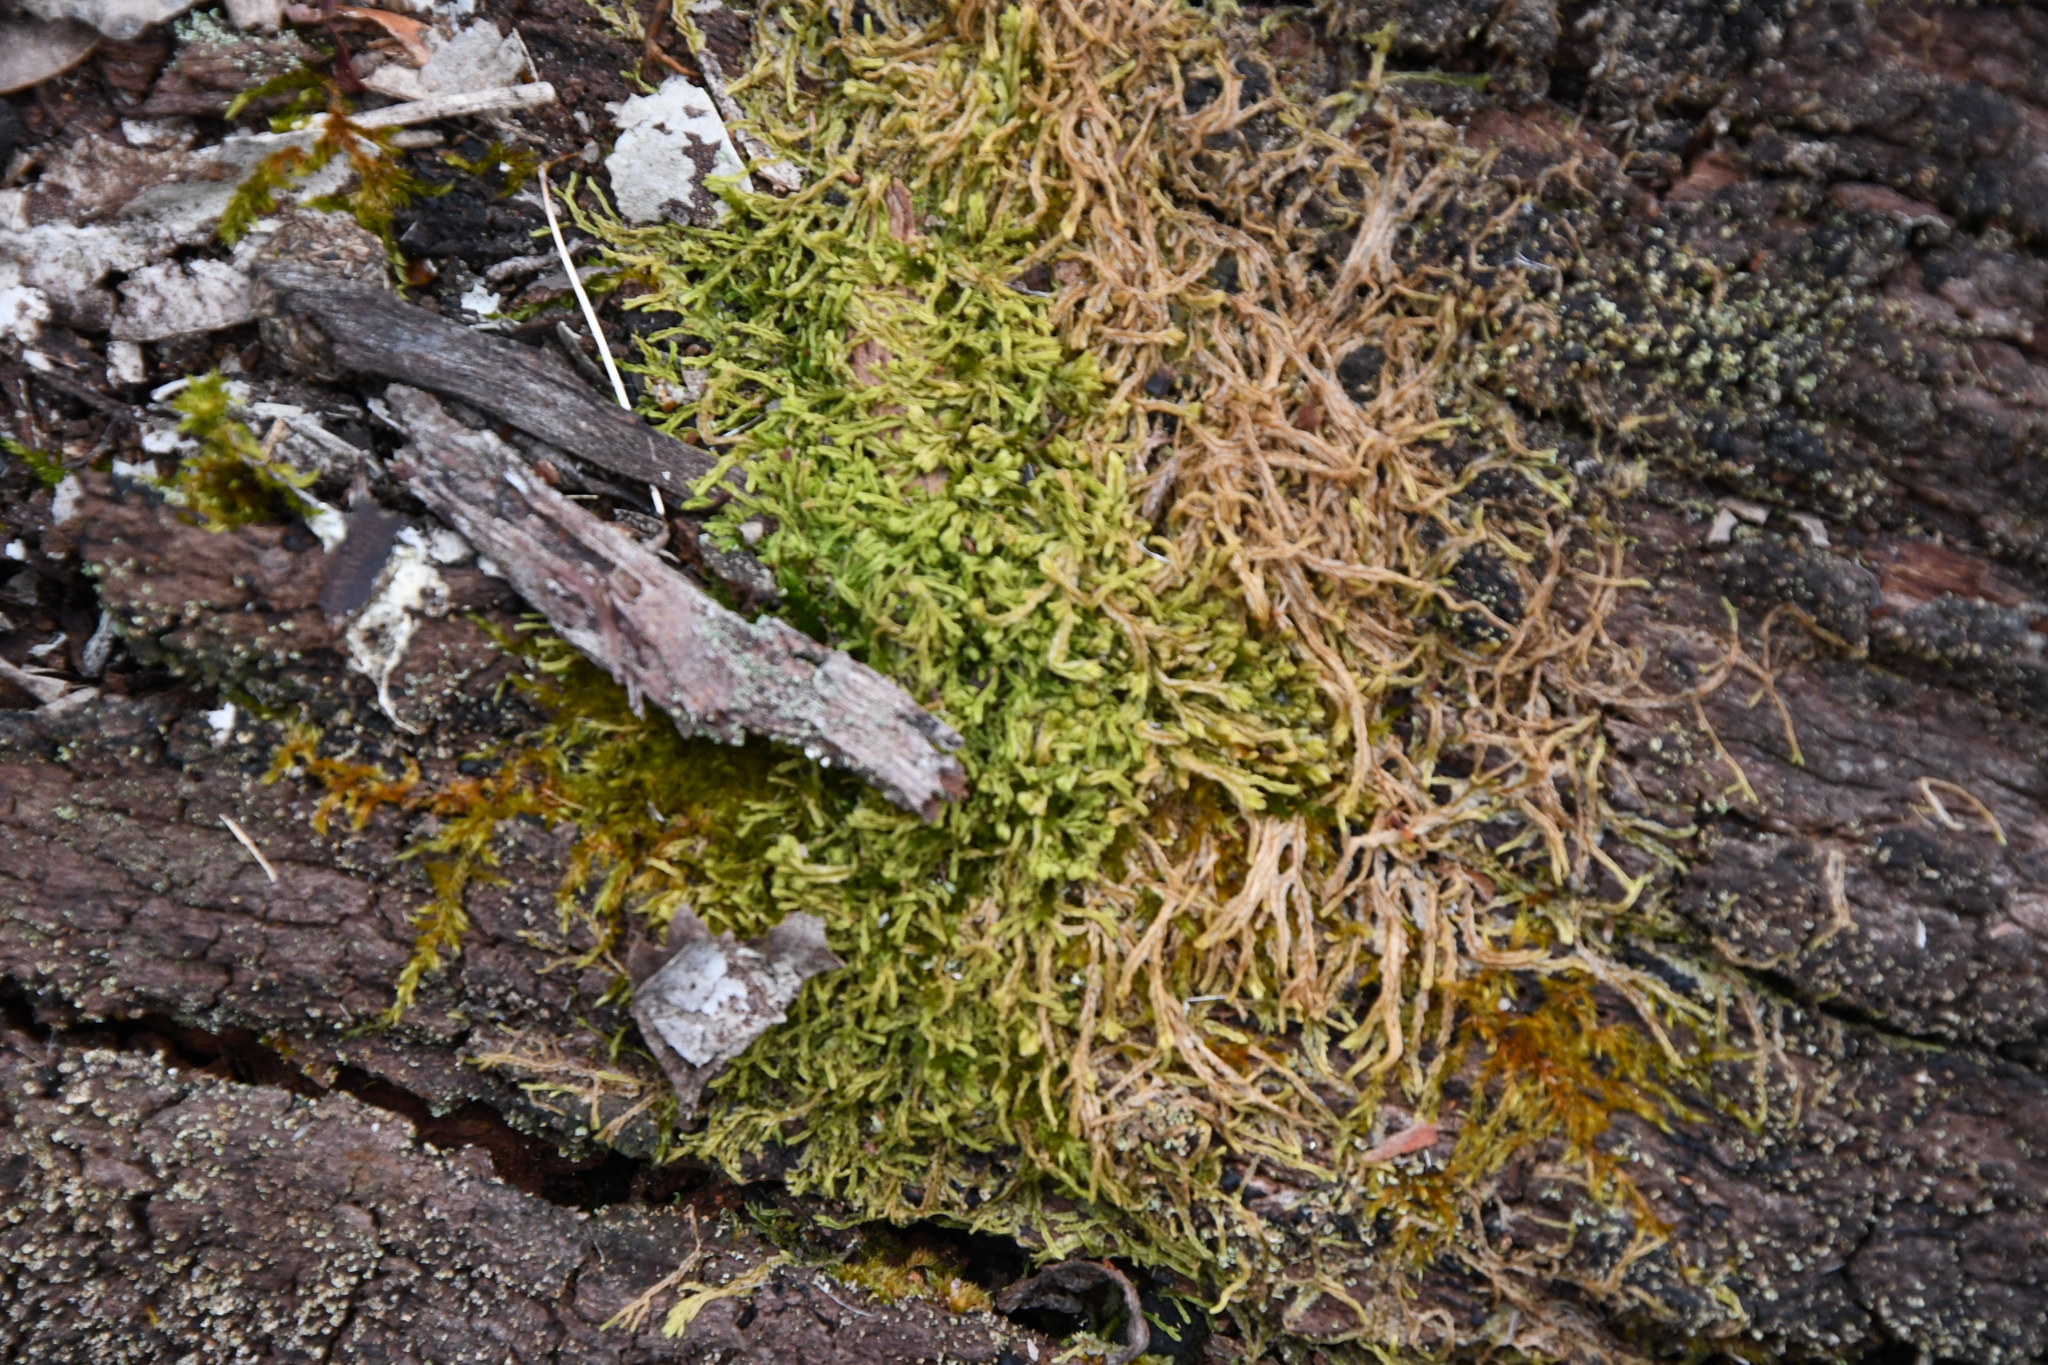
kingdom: Plantae
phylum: Marchantiophyta
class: Jungermanniopsida
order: Jungermanniales
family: Lophocoleaceae
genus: Lophocolea
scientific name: Lophocolea semiteres
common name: Southern crestwort
